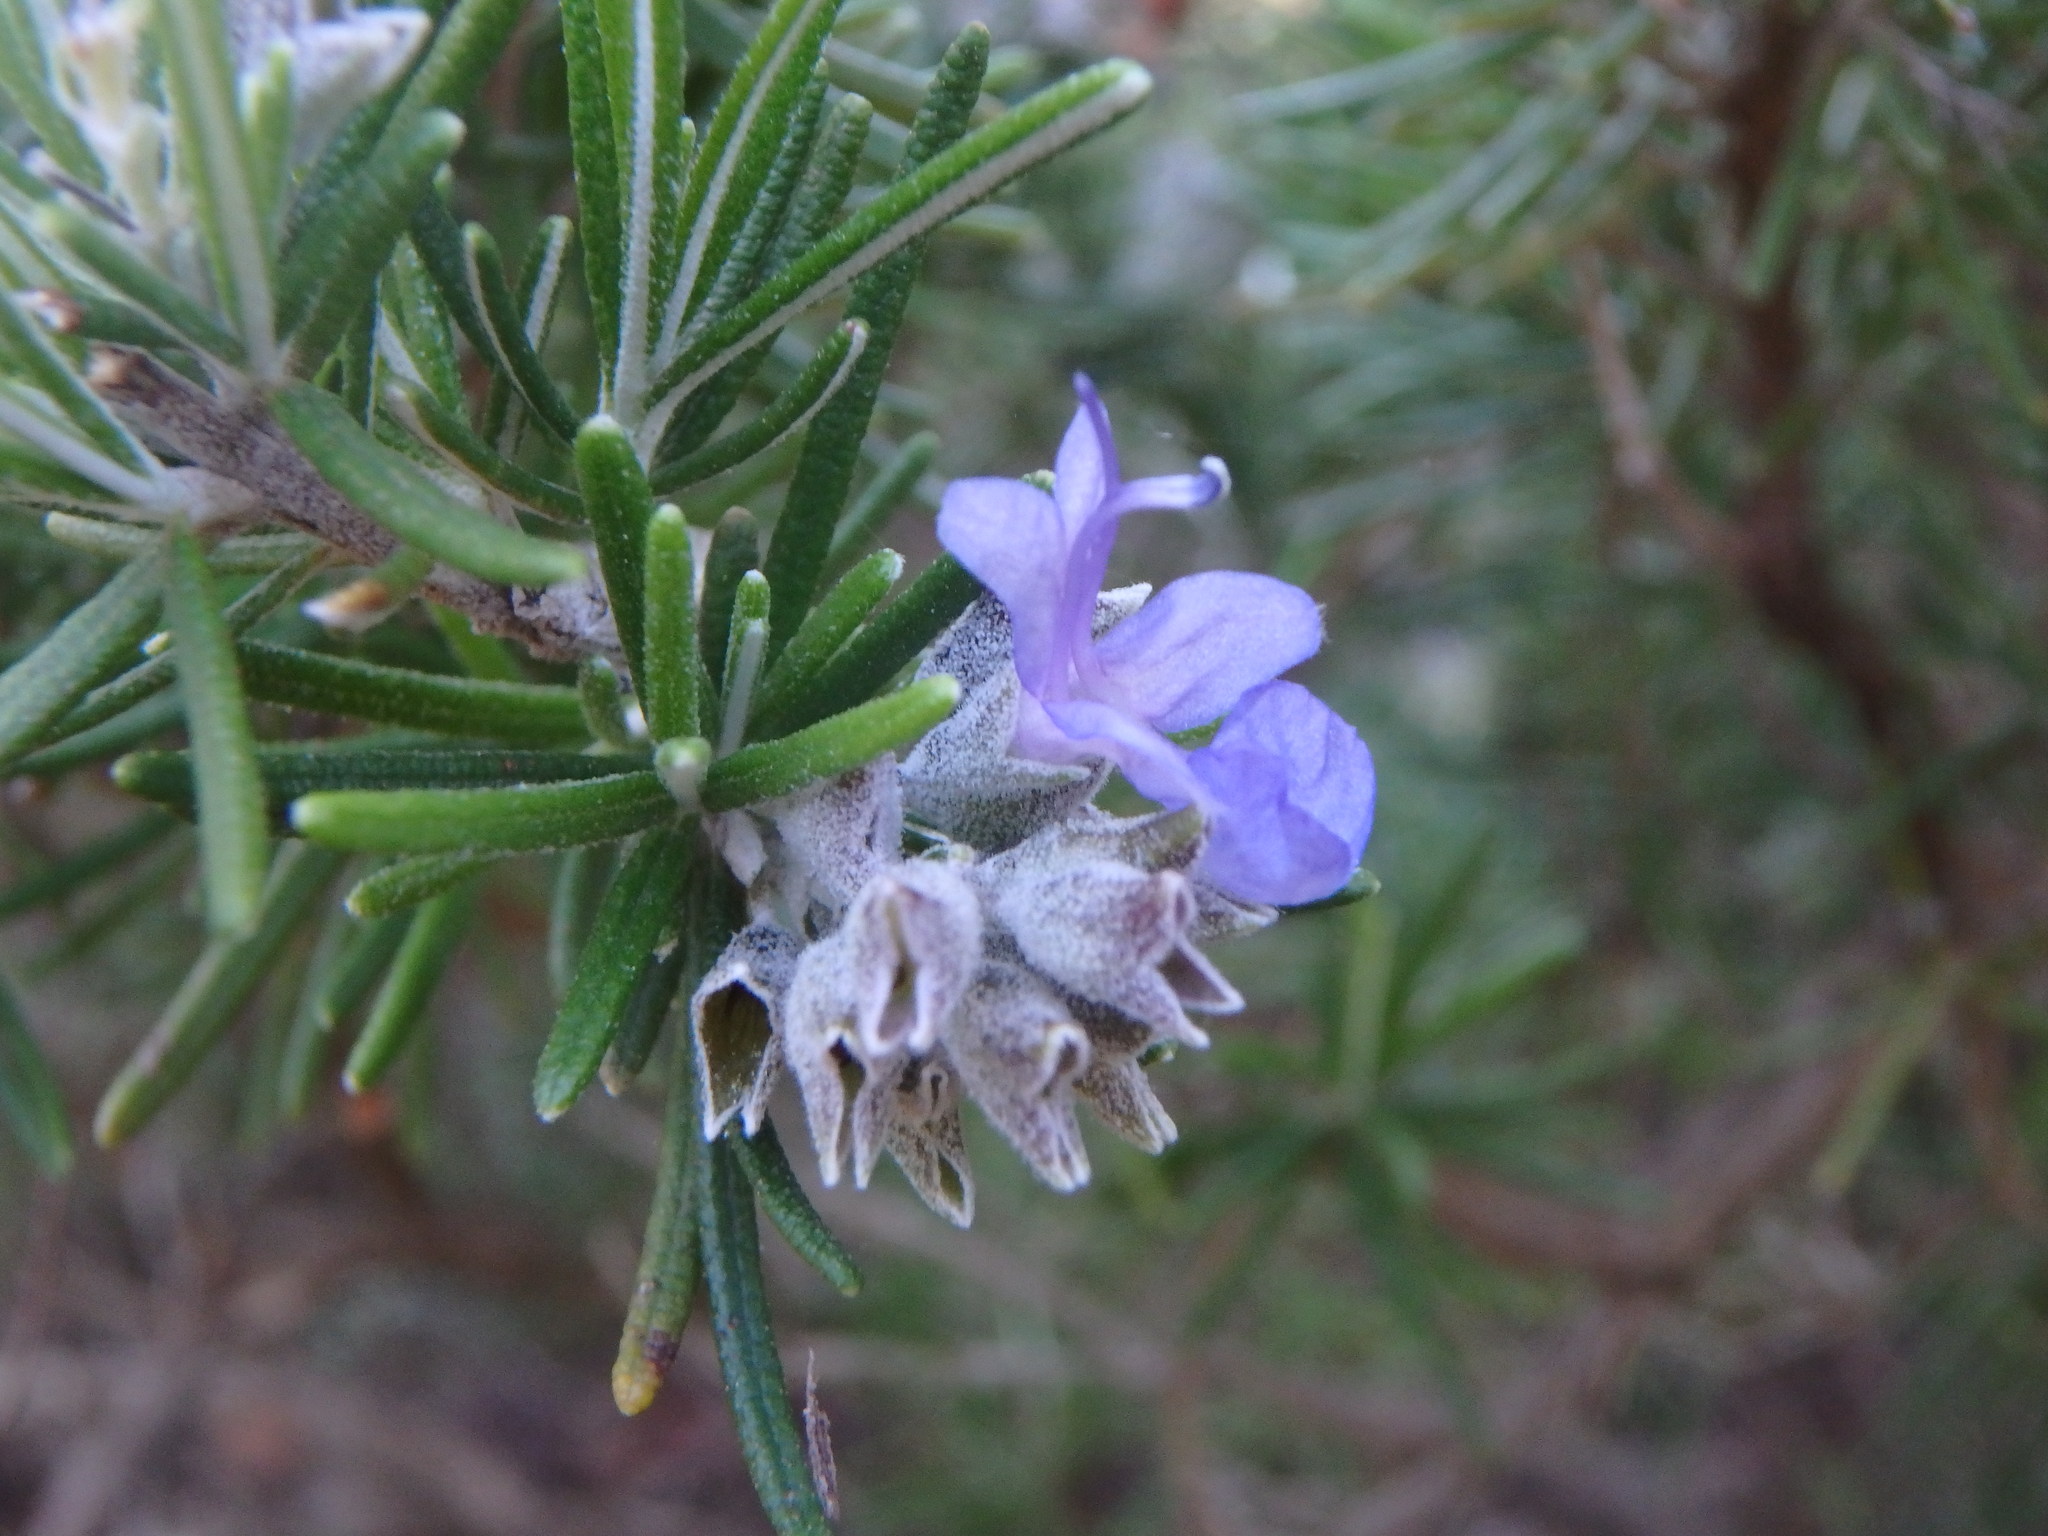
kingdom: Plantae
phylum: Tracheophyta
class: Magnoliopsida
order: Lamiales
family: Lamiaceae
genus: Salvia
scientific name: Salvia rosmarinus
